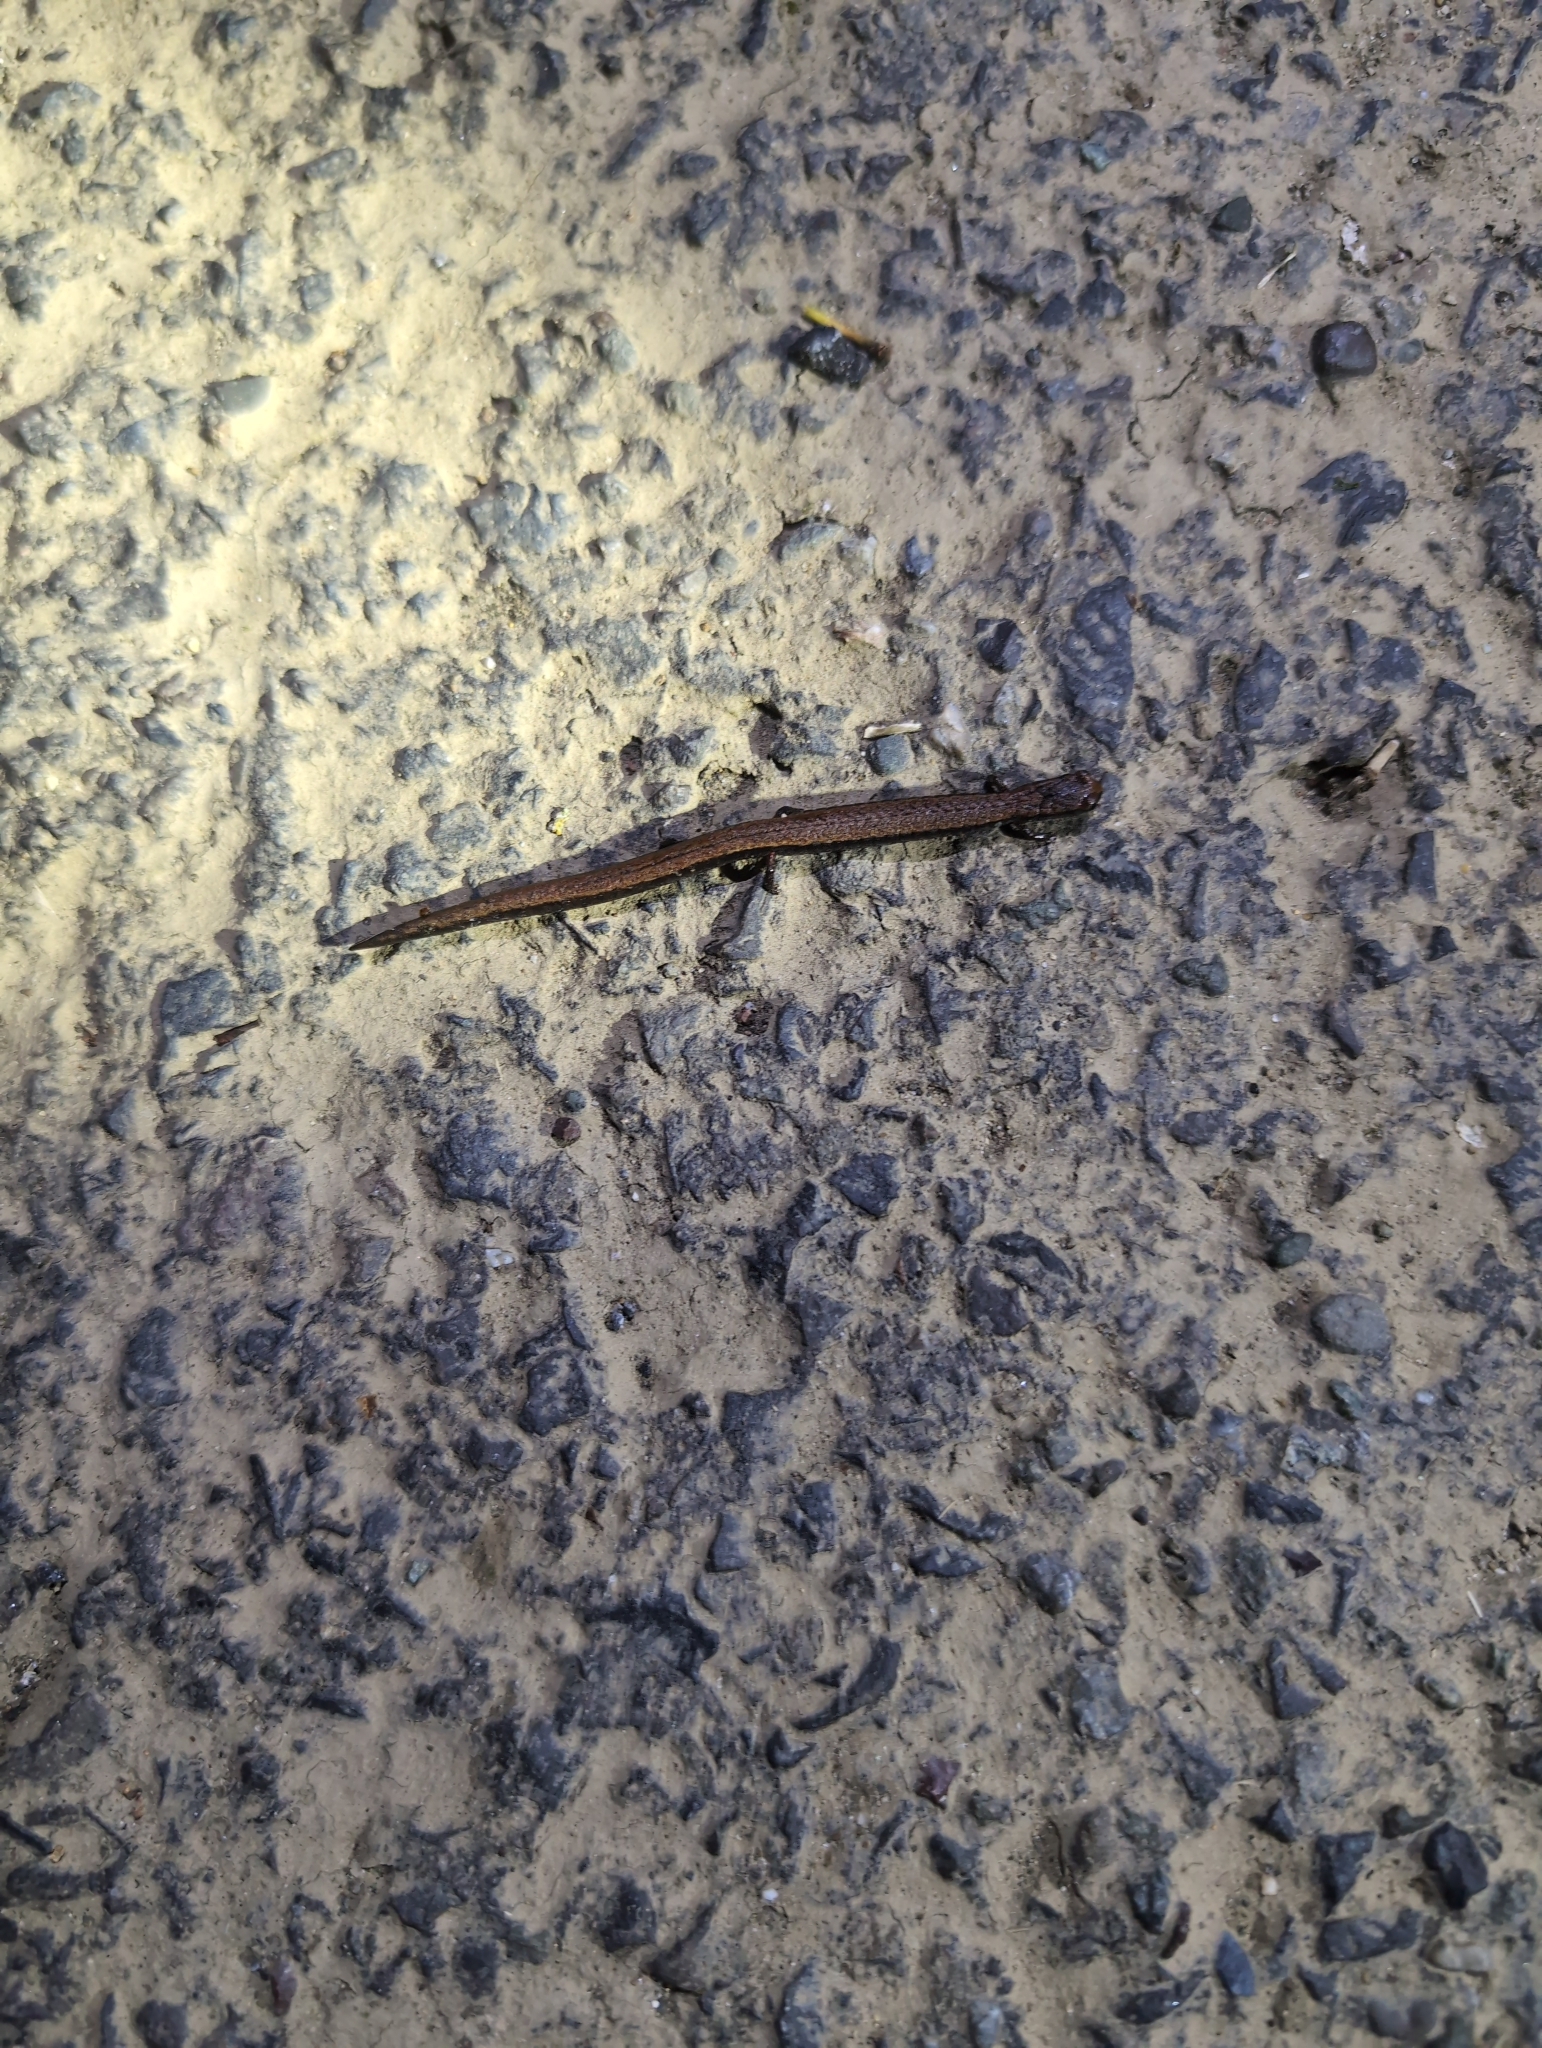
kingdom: Animalia
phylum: Chordata
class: Amphibia
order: Caudata
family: Plethodontidae
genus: Batrachoseps
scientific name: Batrachoseps attenuatus
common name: California slender salamander
